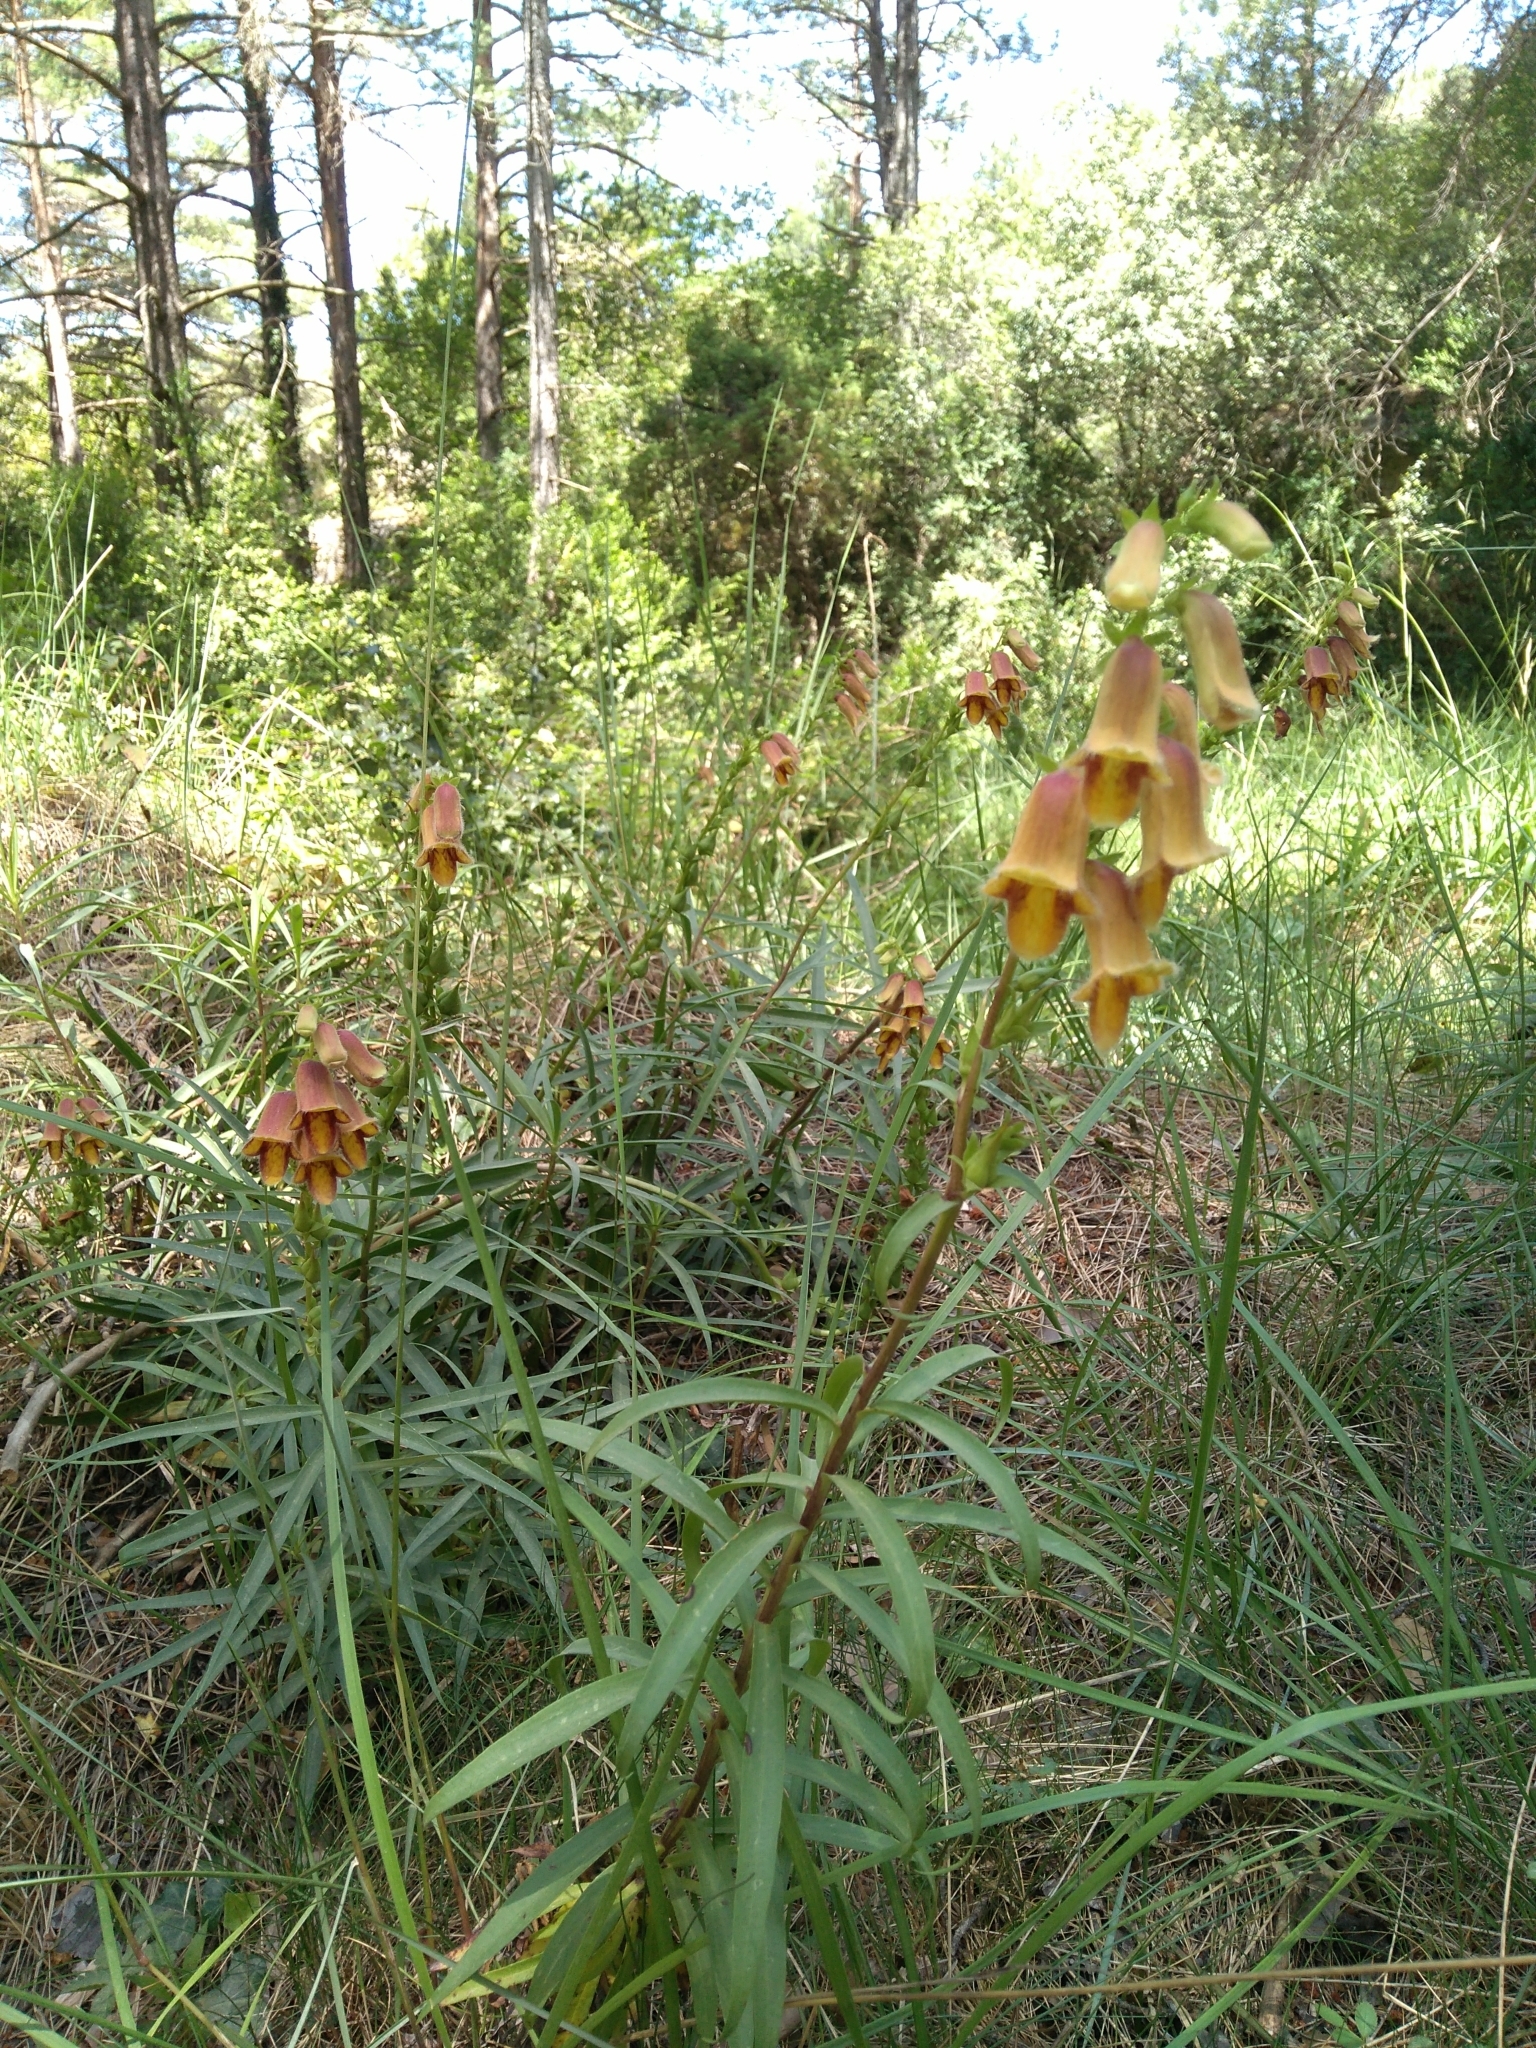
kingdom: Plantae
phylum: Tracheophyta
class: Magnoliopsida
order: Lamiales
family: Plantaginaceae
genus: Digitalis
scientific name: Digitalis obscura
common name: Willow-leaf foxglove
